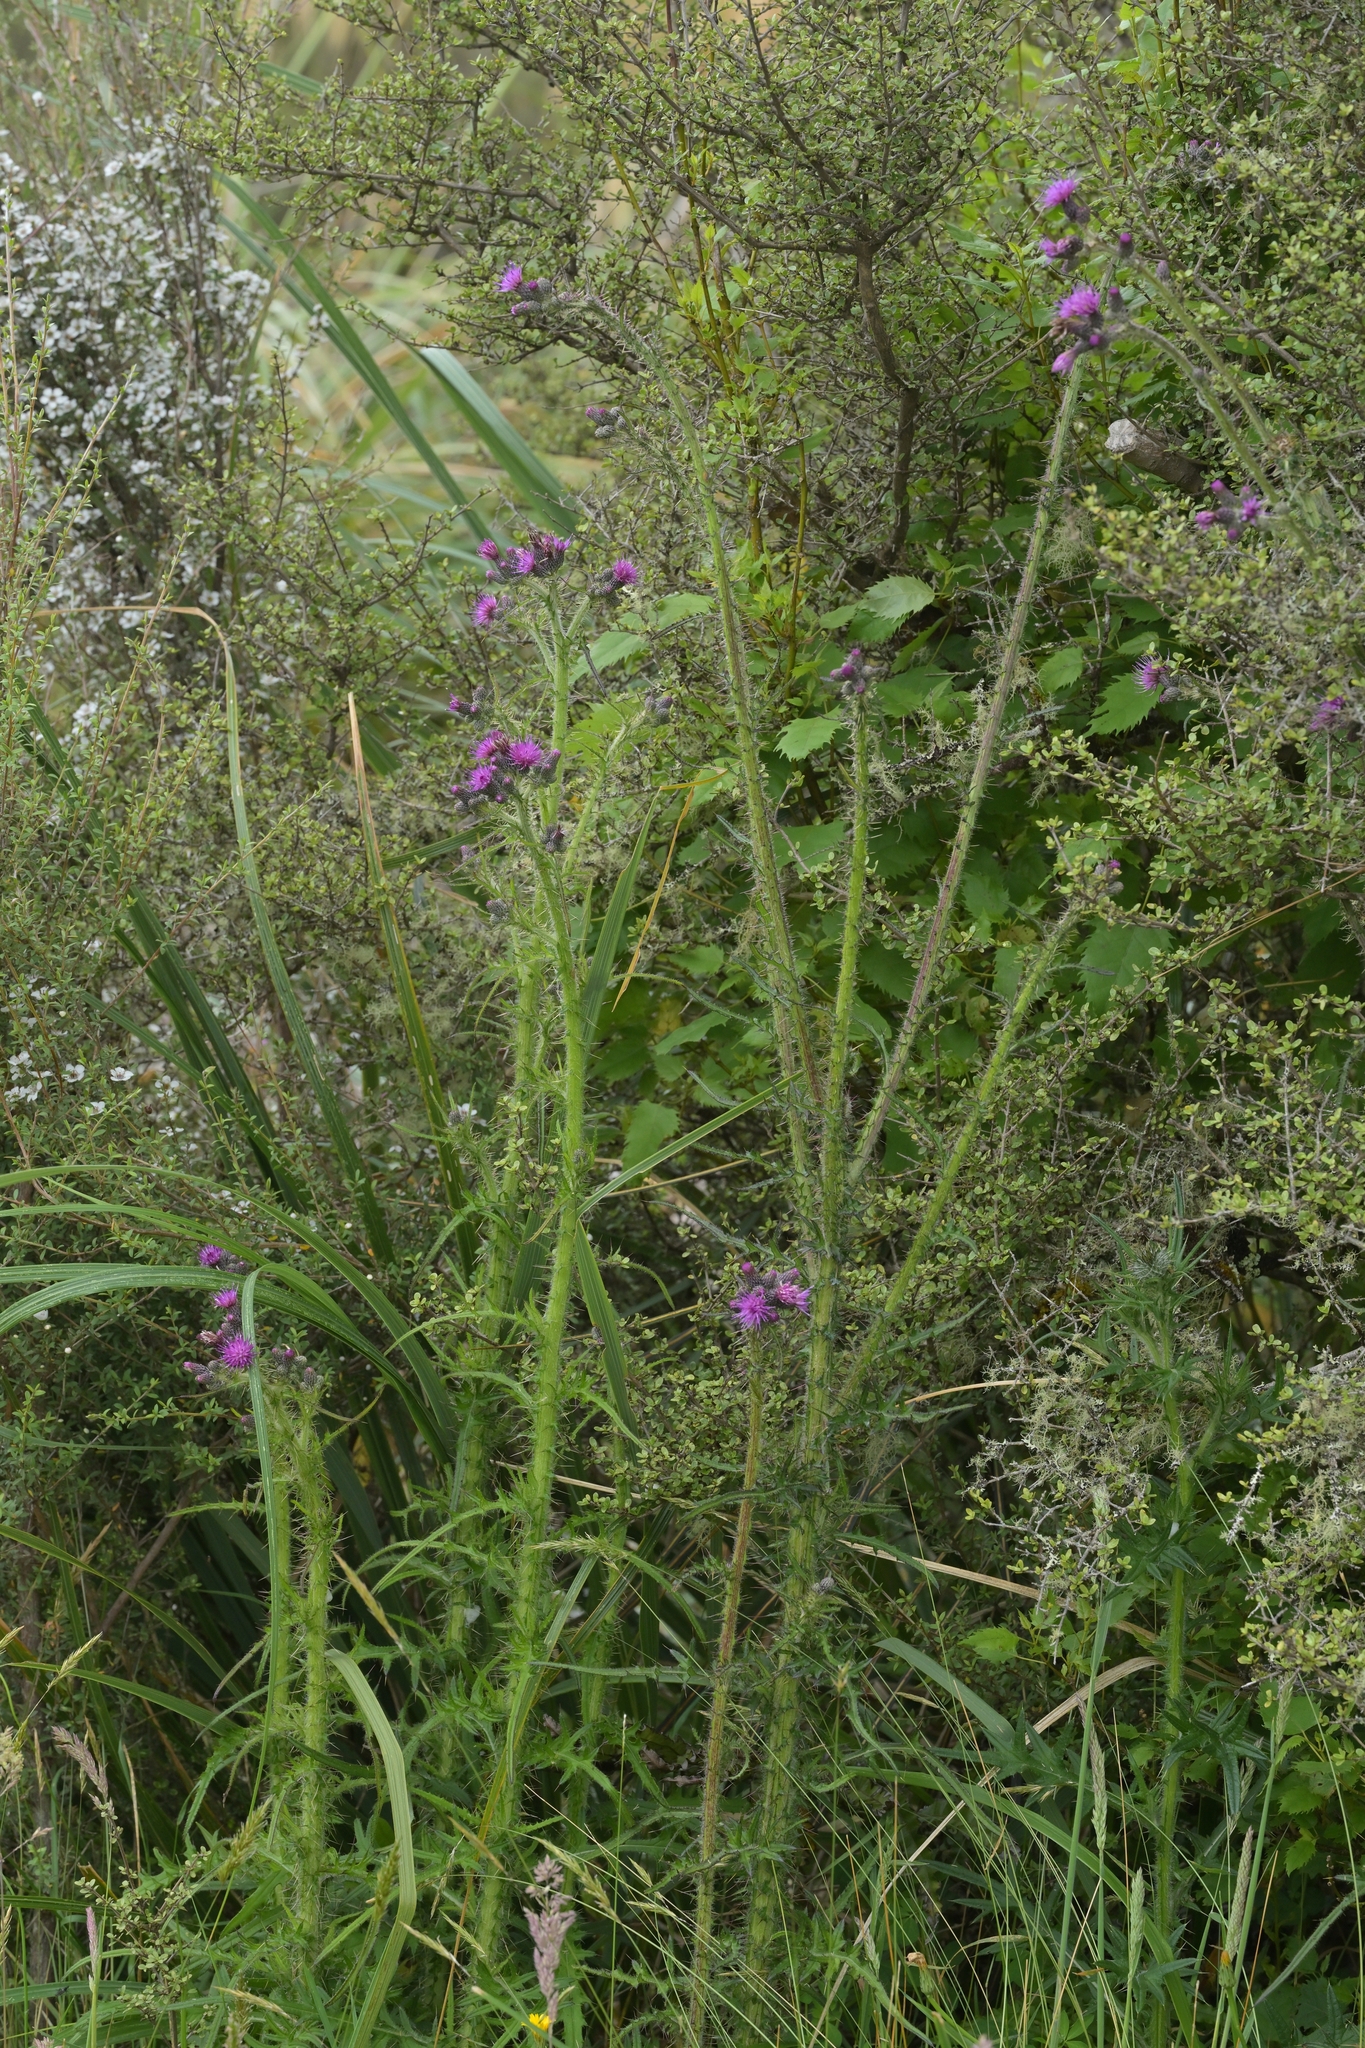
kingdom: Plantae
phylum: Tracheophyta
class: Magnoliopsida
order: Asterales
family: Asteraceae
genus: Cirsium
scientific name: Cirsium palustre
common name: Marsh thistle
